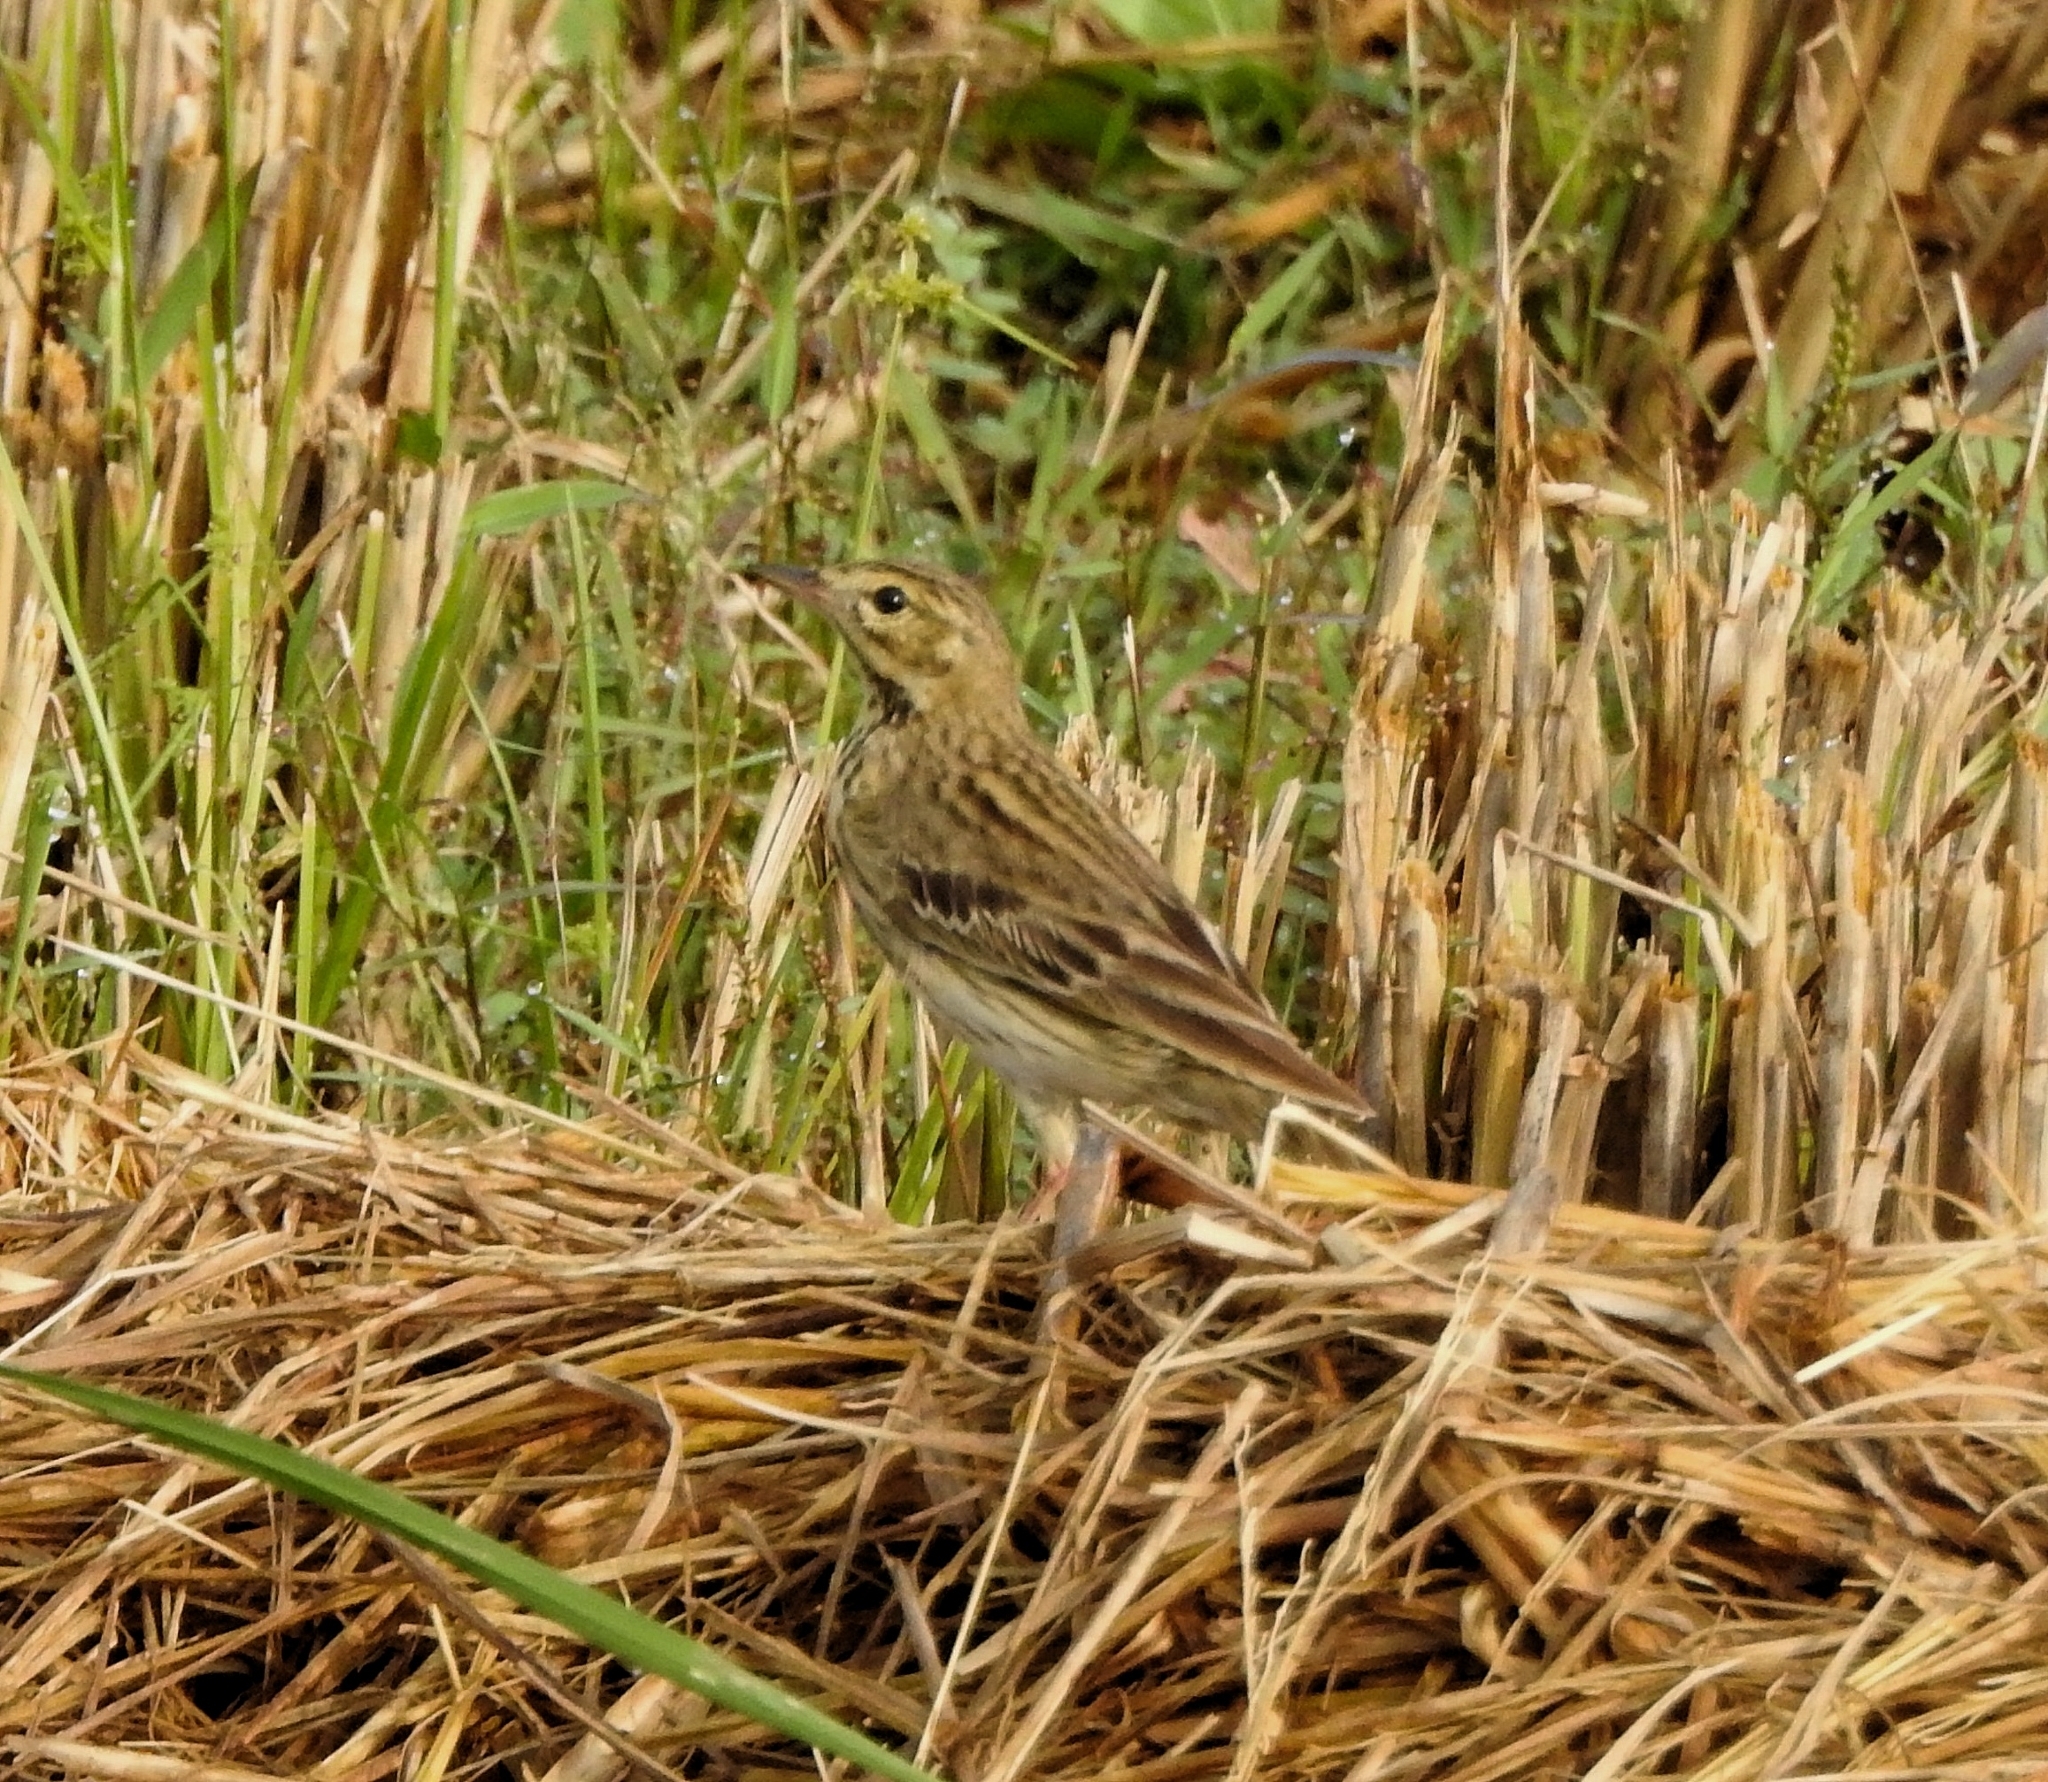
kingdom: Animalia
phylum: Chordata
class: Aves
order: Passeriformes
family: Motacillidae
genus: Anthus
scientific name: Anthus rufulus
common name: Paddyfield pipit
